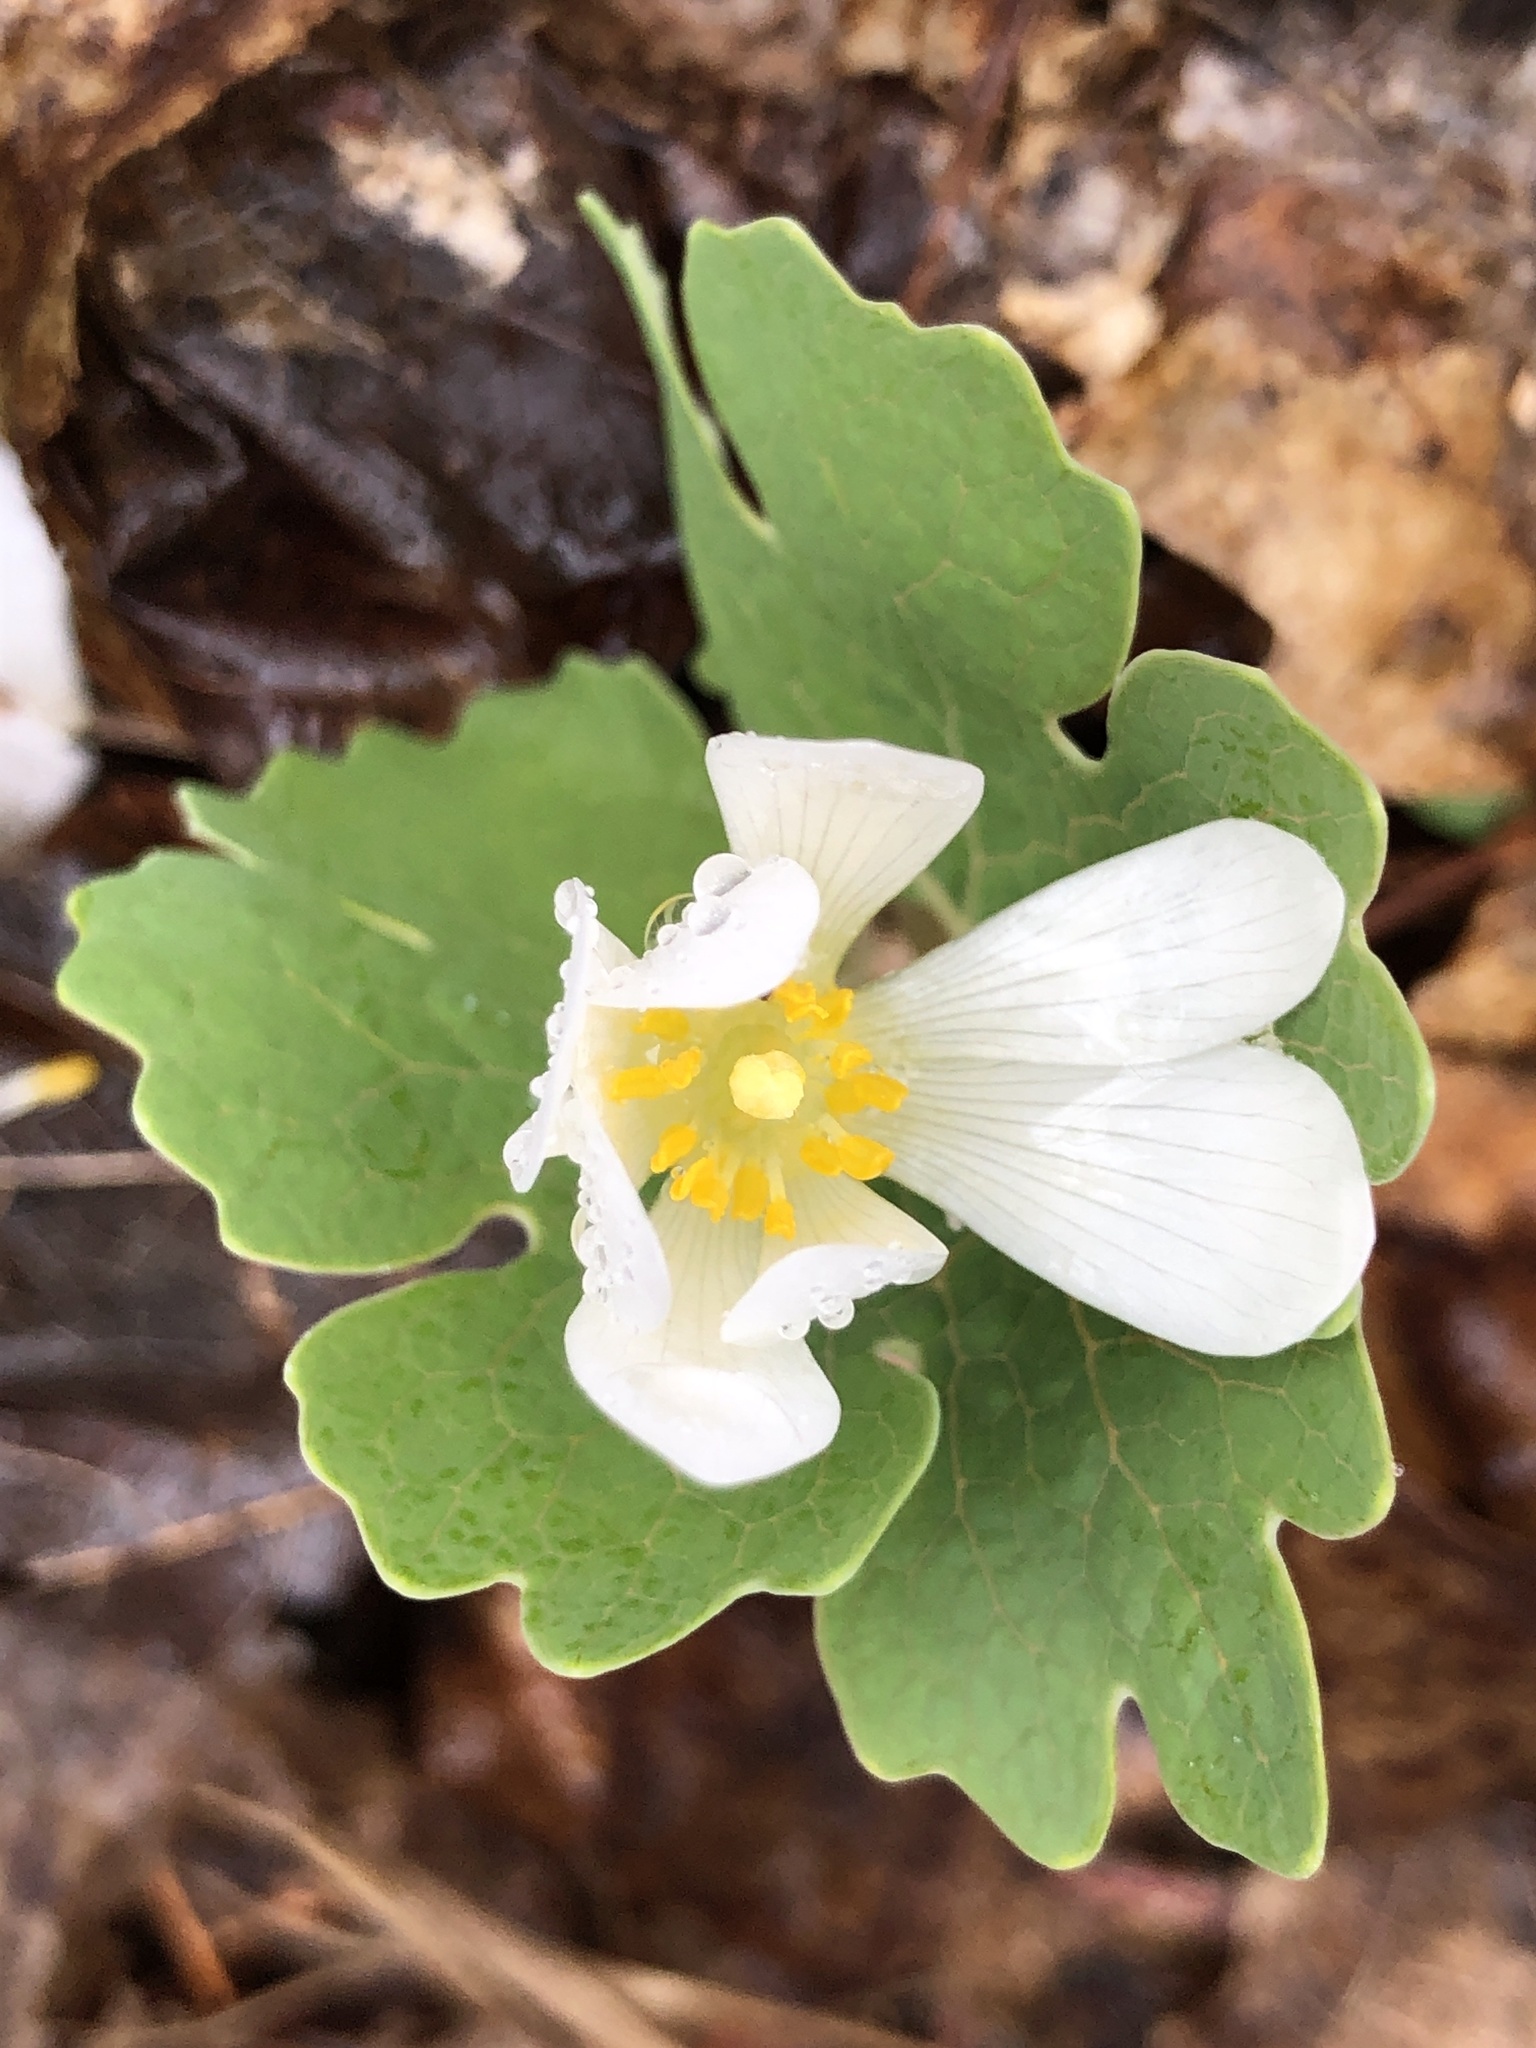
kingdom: Plantae
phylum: Tracheophyta
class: Magnoliopsida
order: Ranunculales
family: Papaveraceae
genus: Sanguinaria
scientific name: Sanguinaria canadensis
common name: Bloodroot
